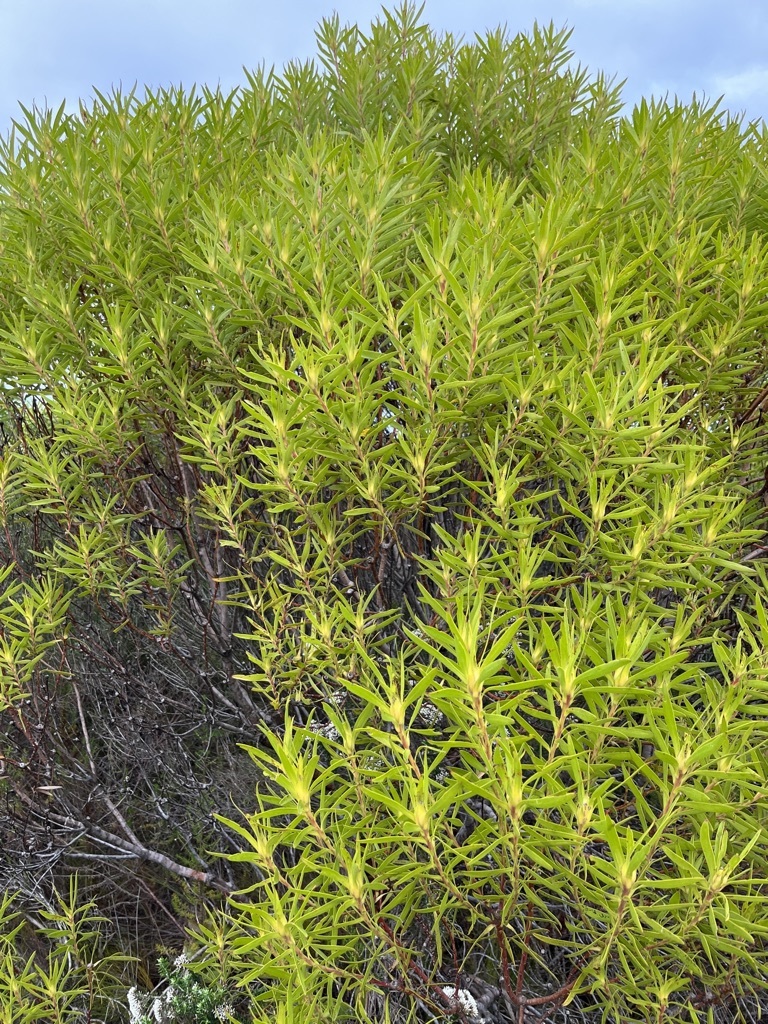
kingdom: Plantae
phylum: Tracheophyta
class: Magnoliopsida
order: Proteales
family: Proteaceae
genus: Leucadendron
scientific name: Leucadendron coniferum
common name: Dune conebush
